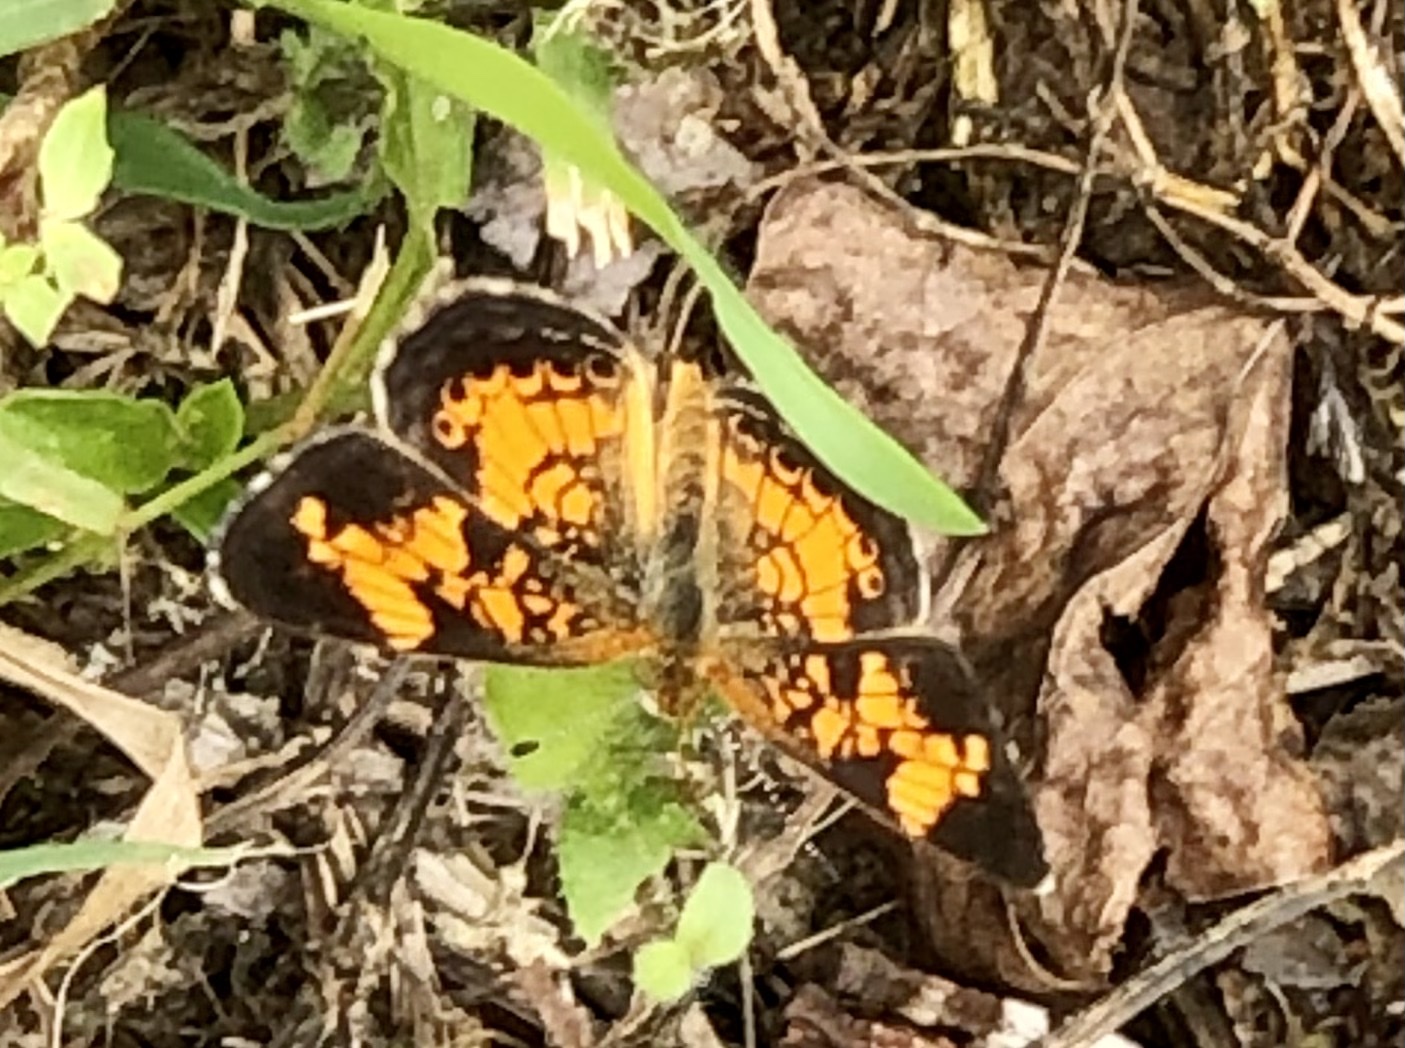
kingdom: Animalia
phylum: Arthropoda
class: Insecta
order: Lepidoptera
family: Nymphalidae
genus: Phyciodes
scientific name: Phyciodes tharos
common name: Pearl crescent
